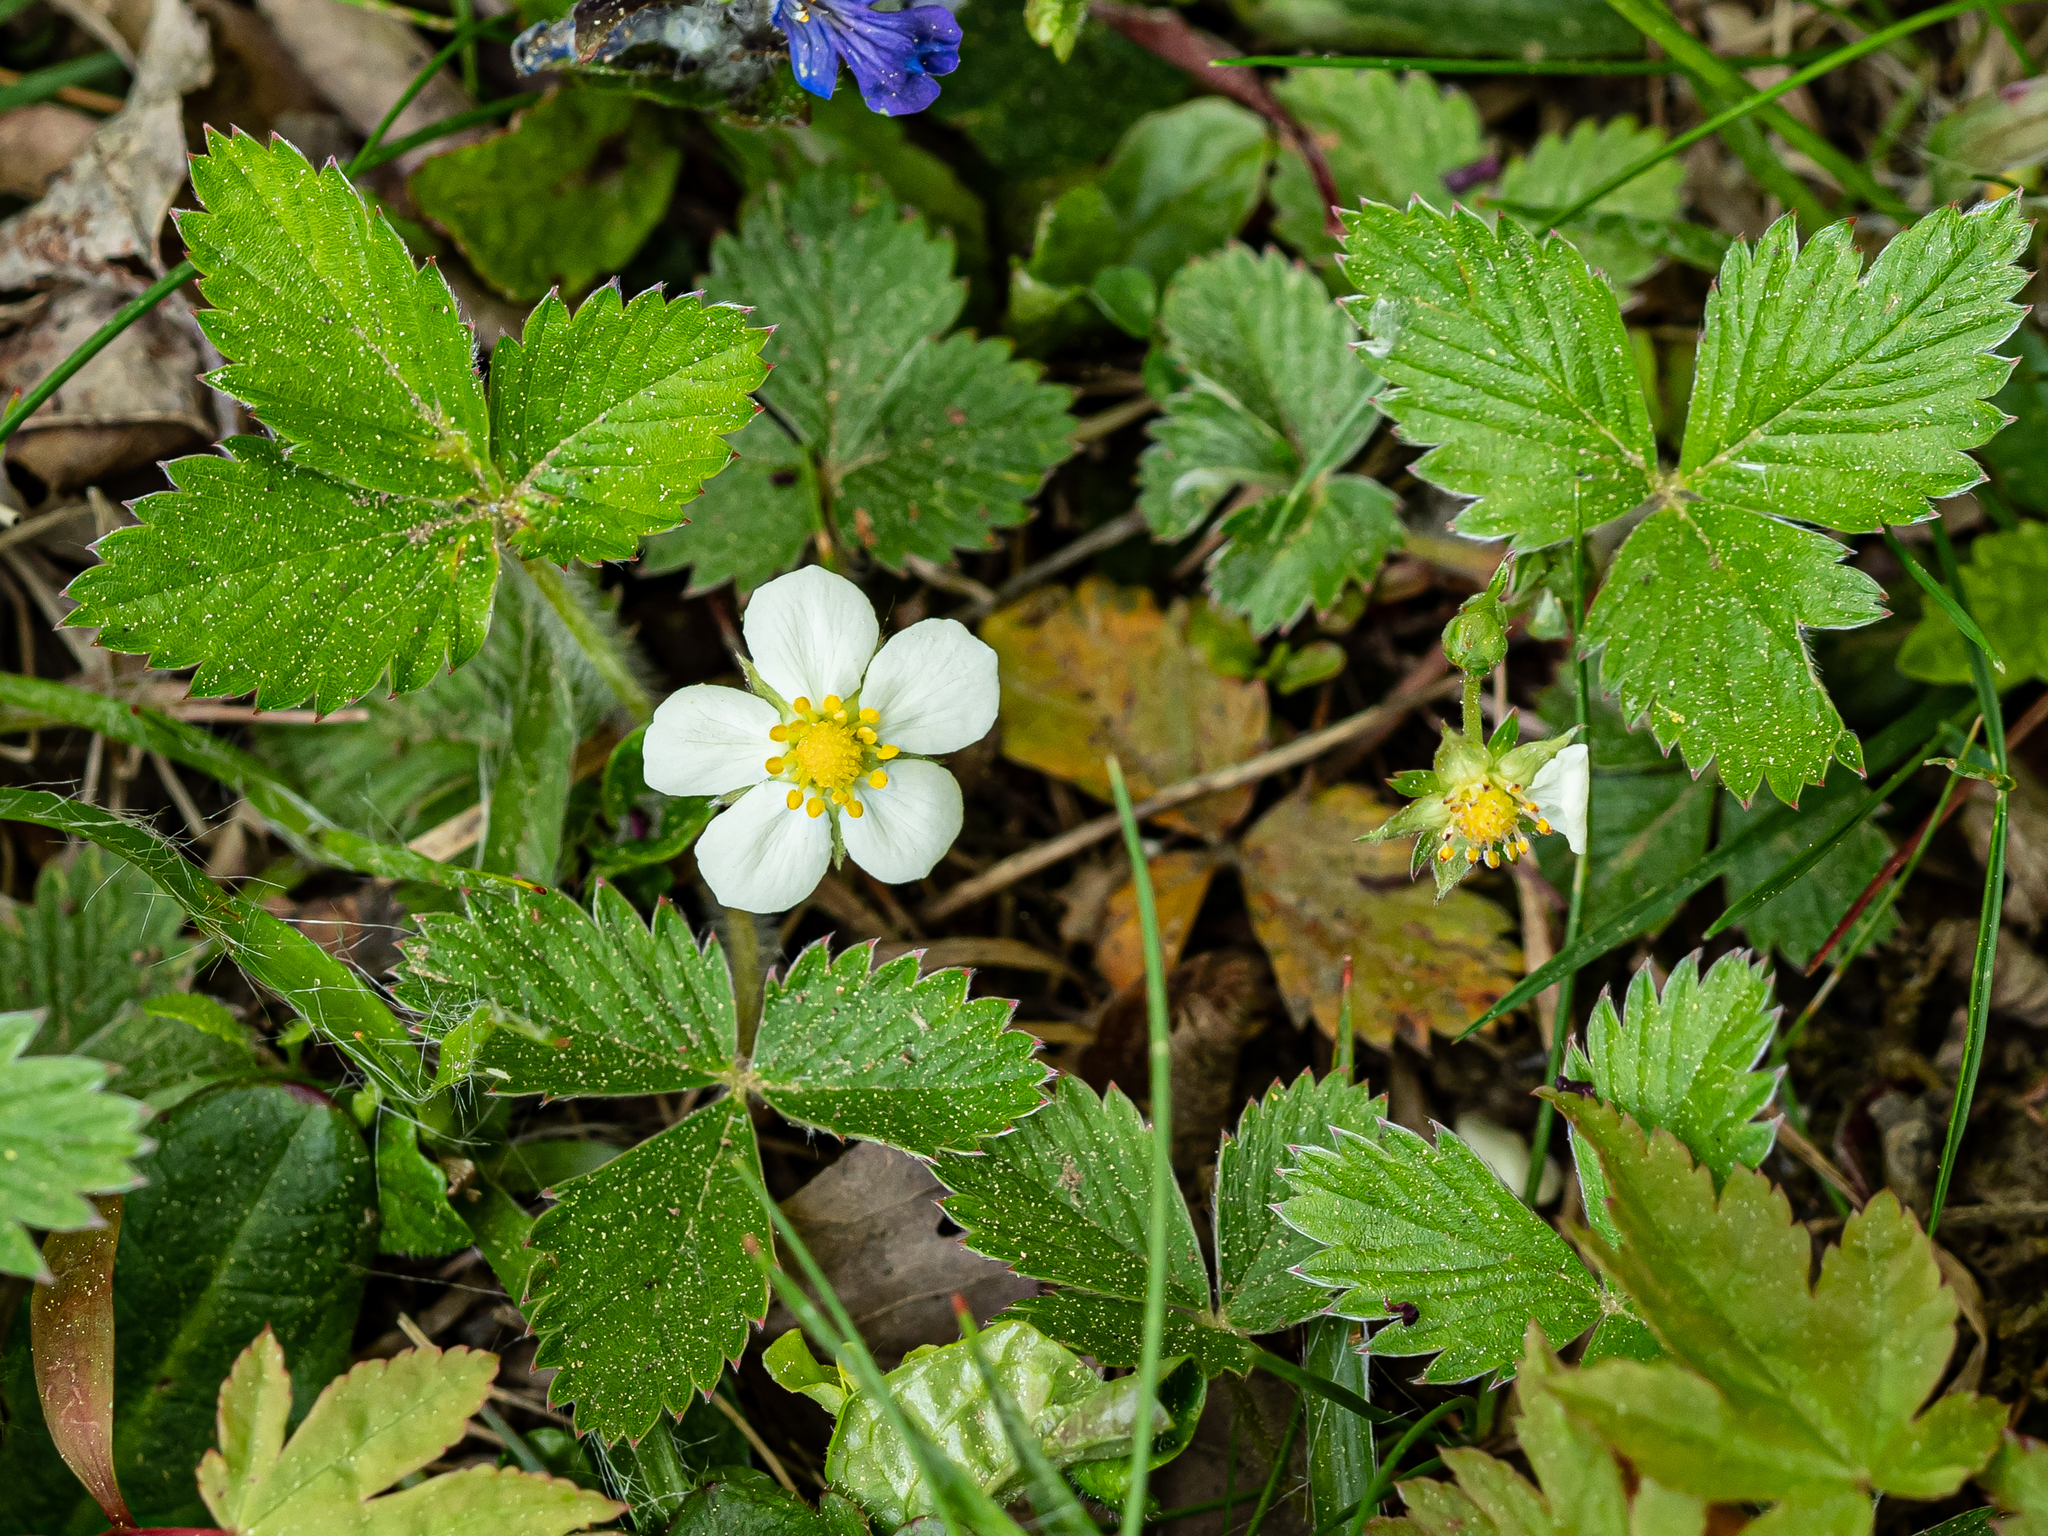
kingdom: Plantae
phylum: Tracheophyta
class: Magnoliopsida
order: Rosales
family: Rosaceae
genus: Fragaria
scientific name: Fragaria vesca
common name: Wild strawberry
